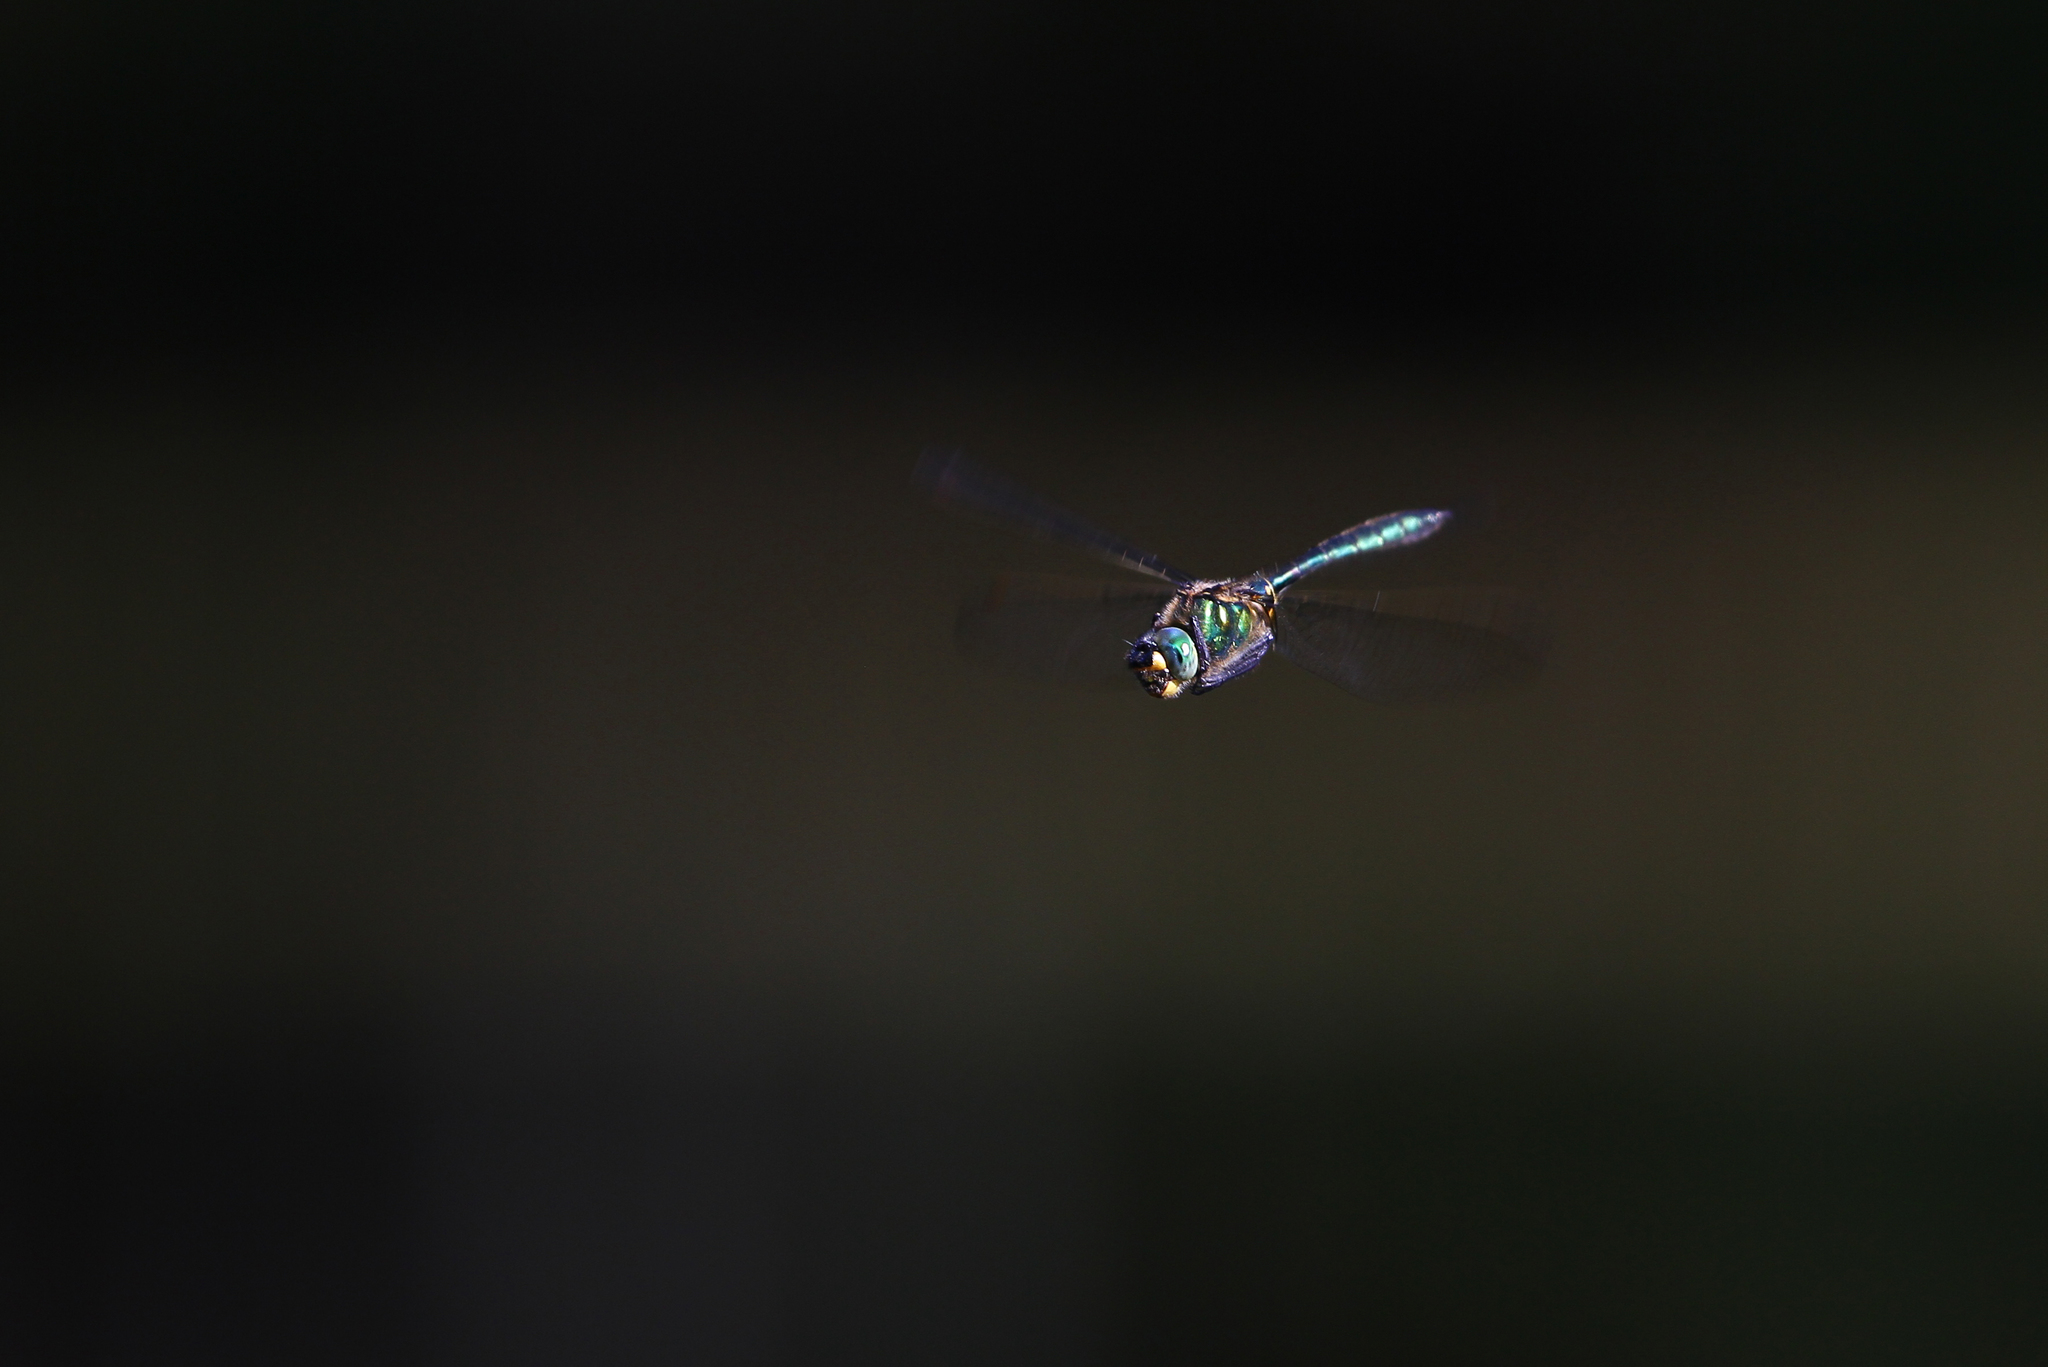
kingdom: Animalia
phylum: Arthropoda
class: Insecta
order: Odonata
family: Corduliidae
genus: Somatochlora
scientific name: Somatochlora metallica
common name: Brilliant emerald
